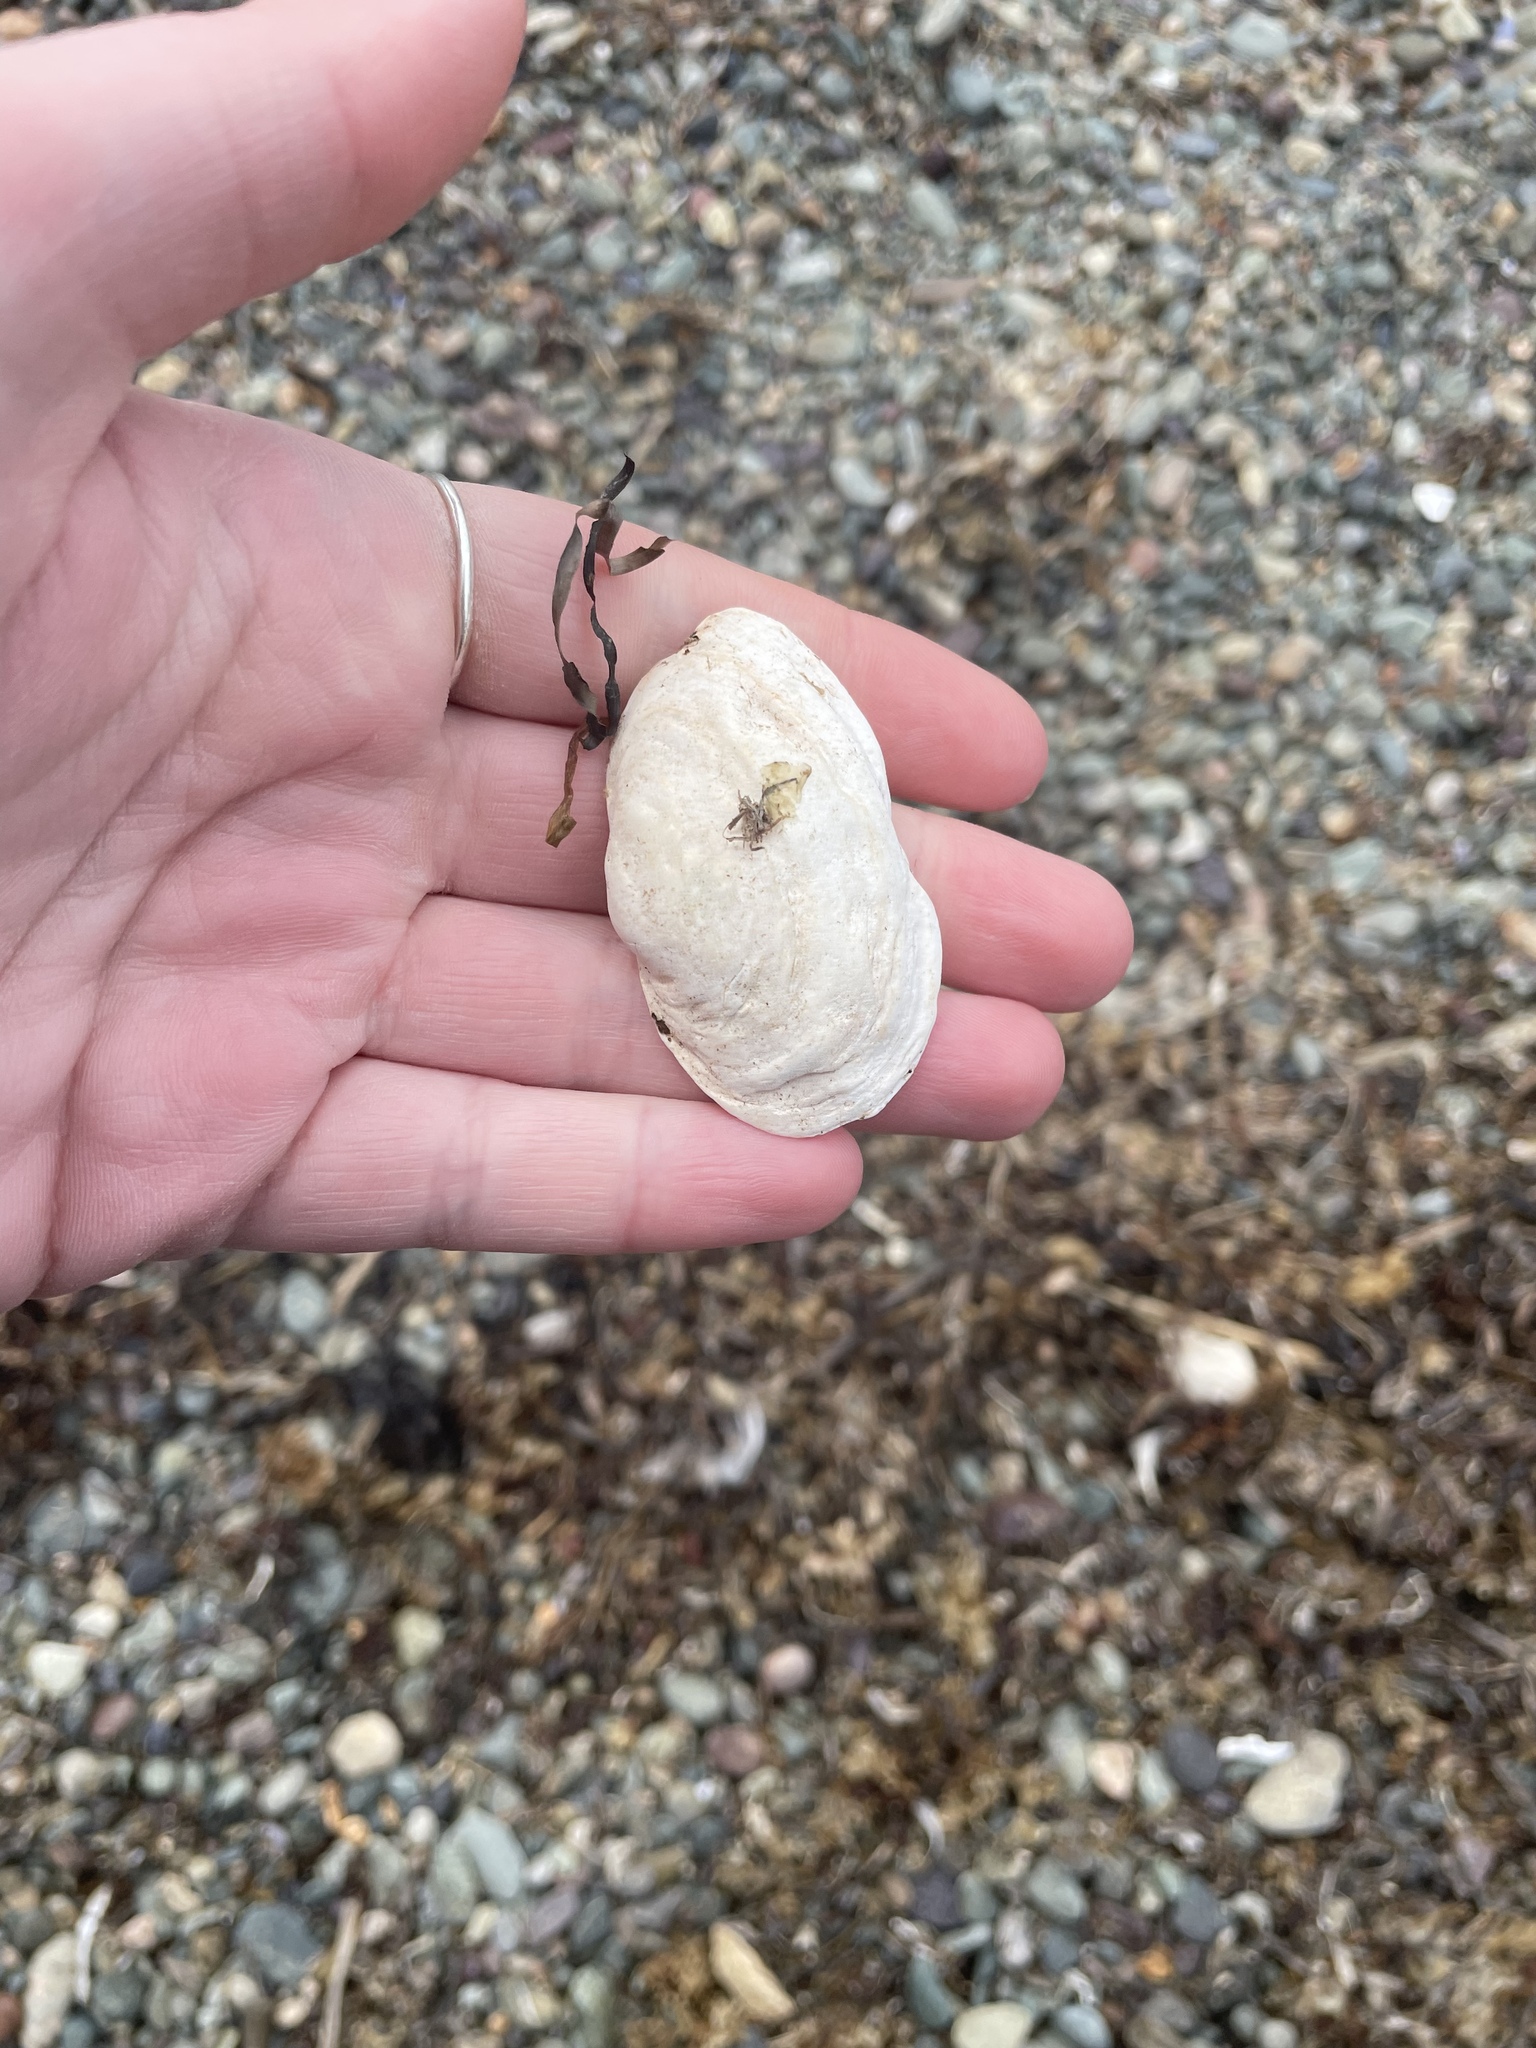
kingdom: Animalia
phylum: Mollusca
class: Bivalvia
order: Myida
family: Myidae
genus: Mya
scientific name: Mya arenaria
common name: Soft-shelled clam
